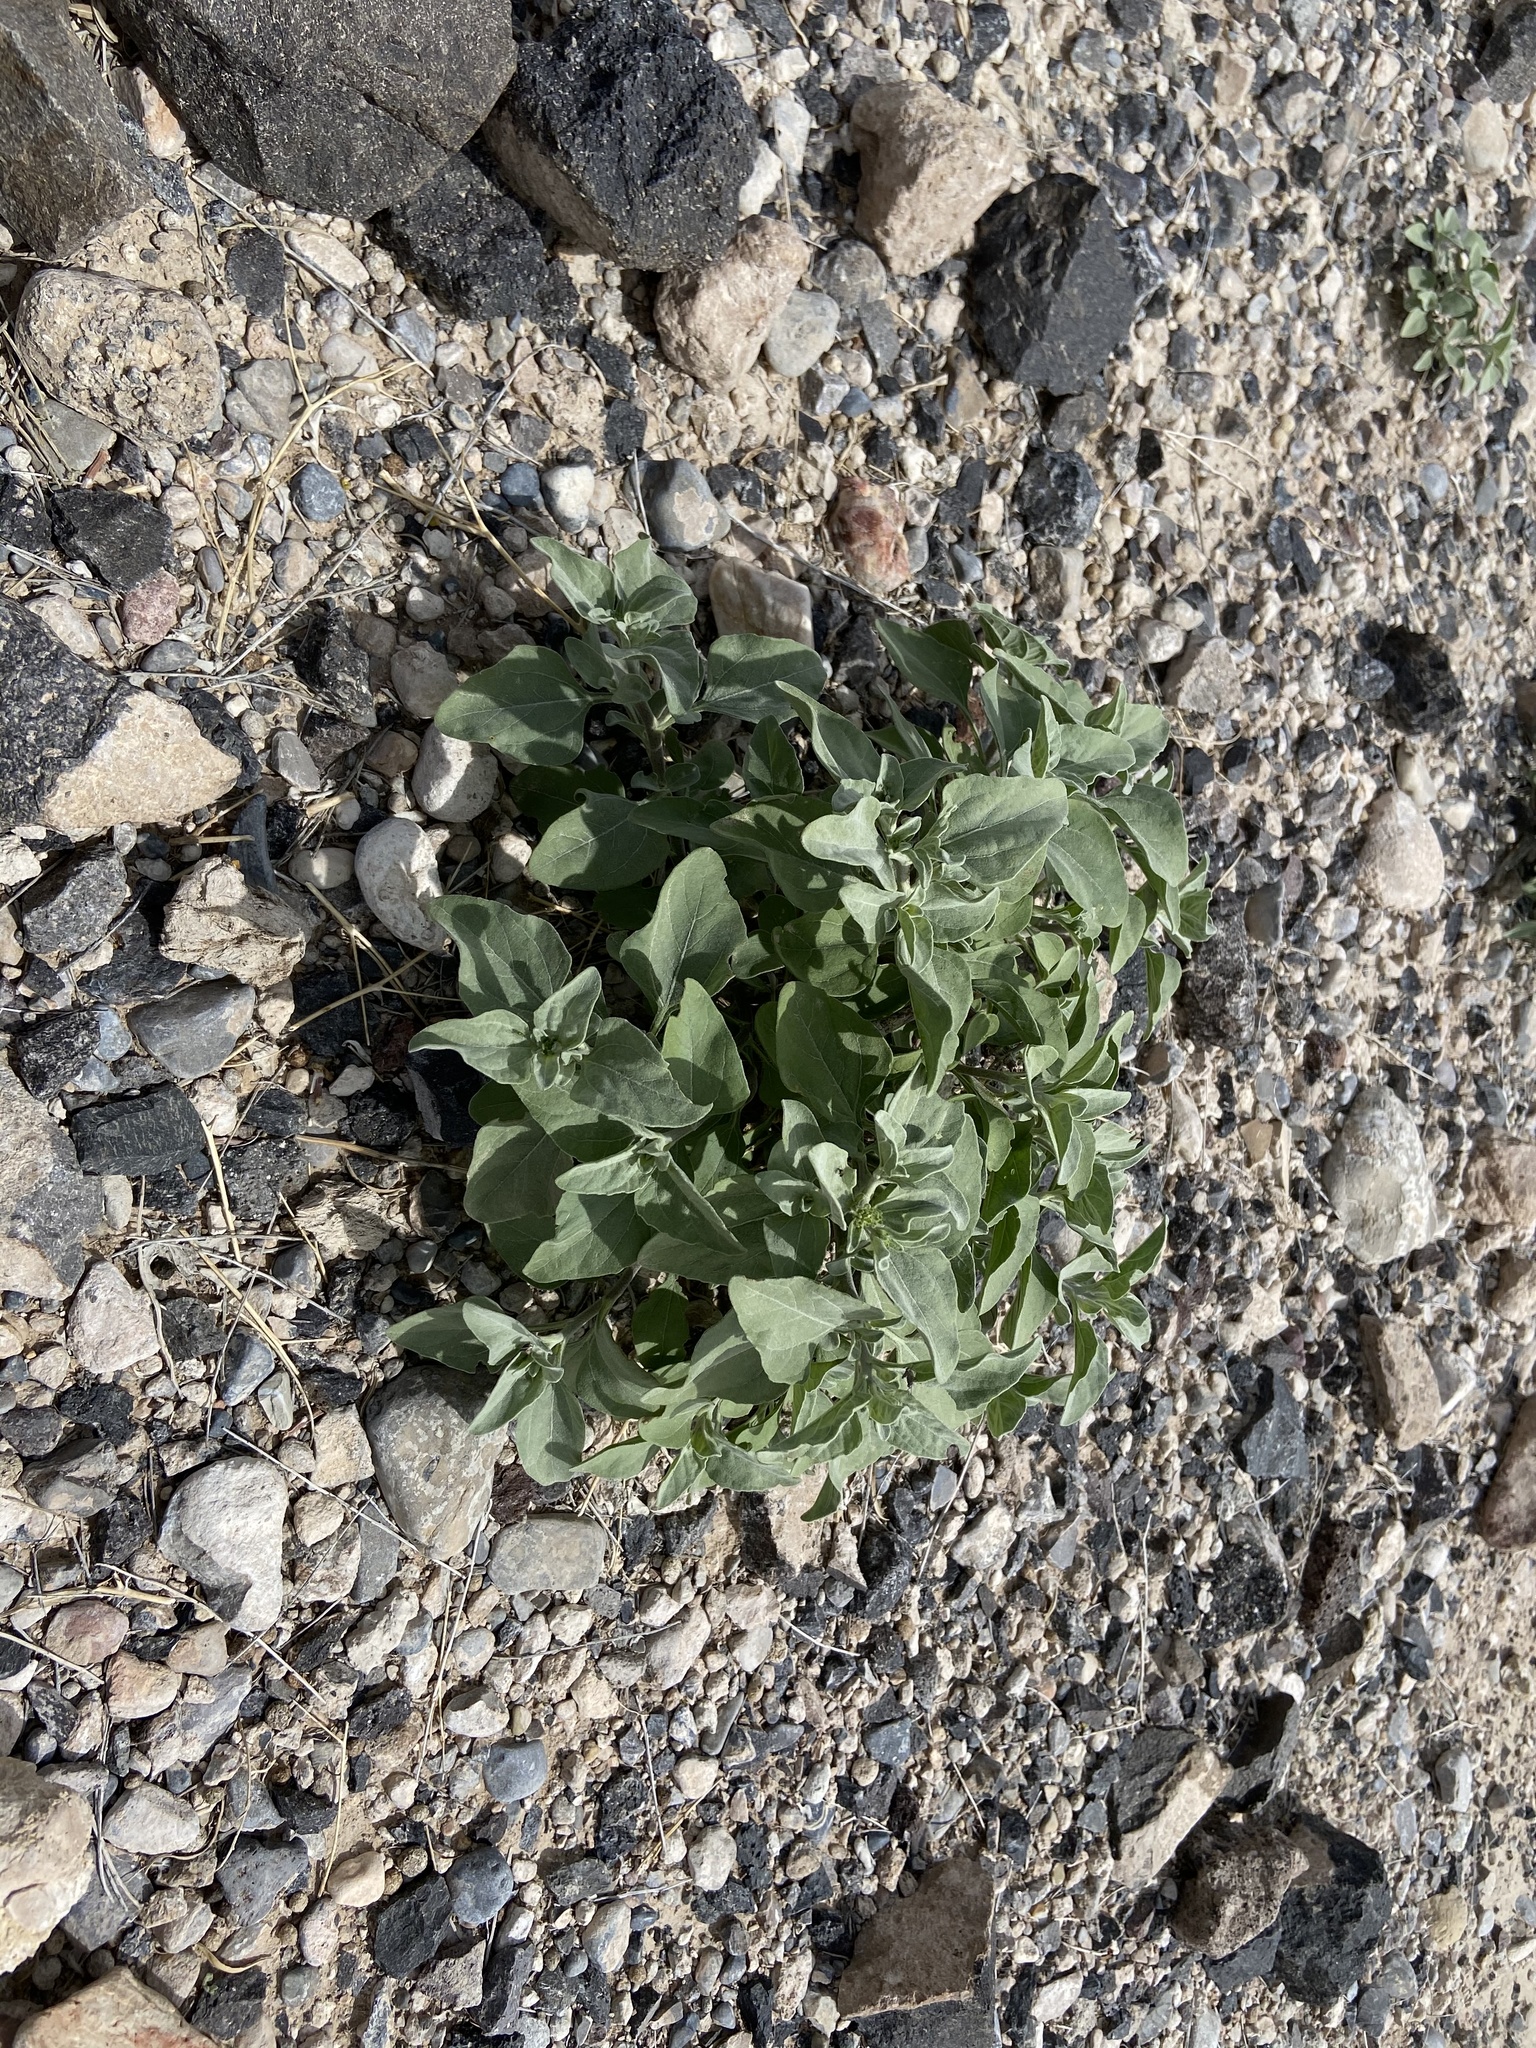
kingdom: Plantae
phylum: Tracheophyta
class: Magnoliopsida
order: Asterales
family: Asteraceae
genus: Encelia
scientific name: Encelia farinosa
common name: Brittlebush
